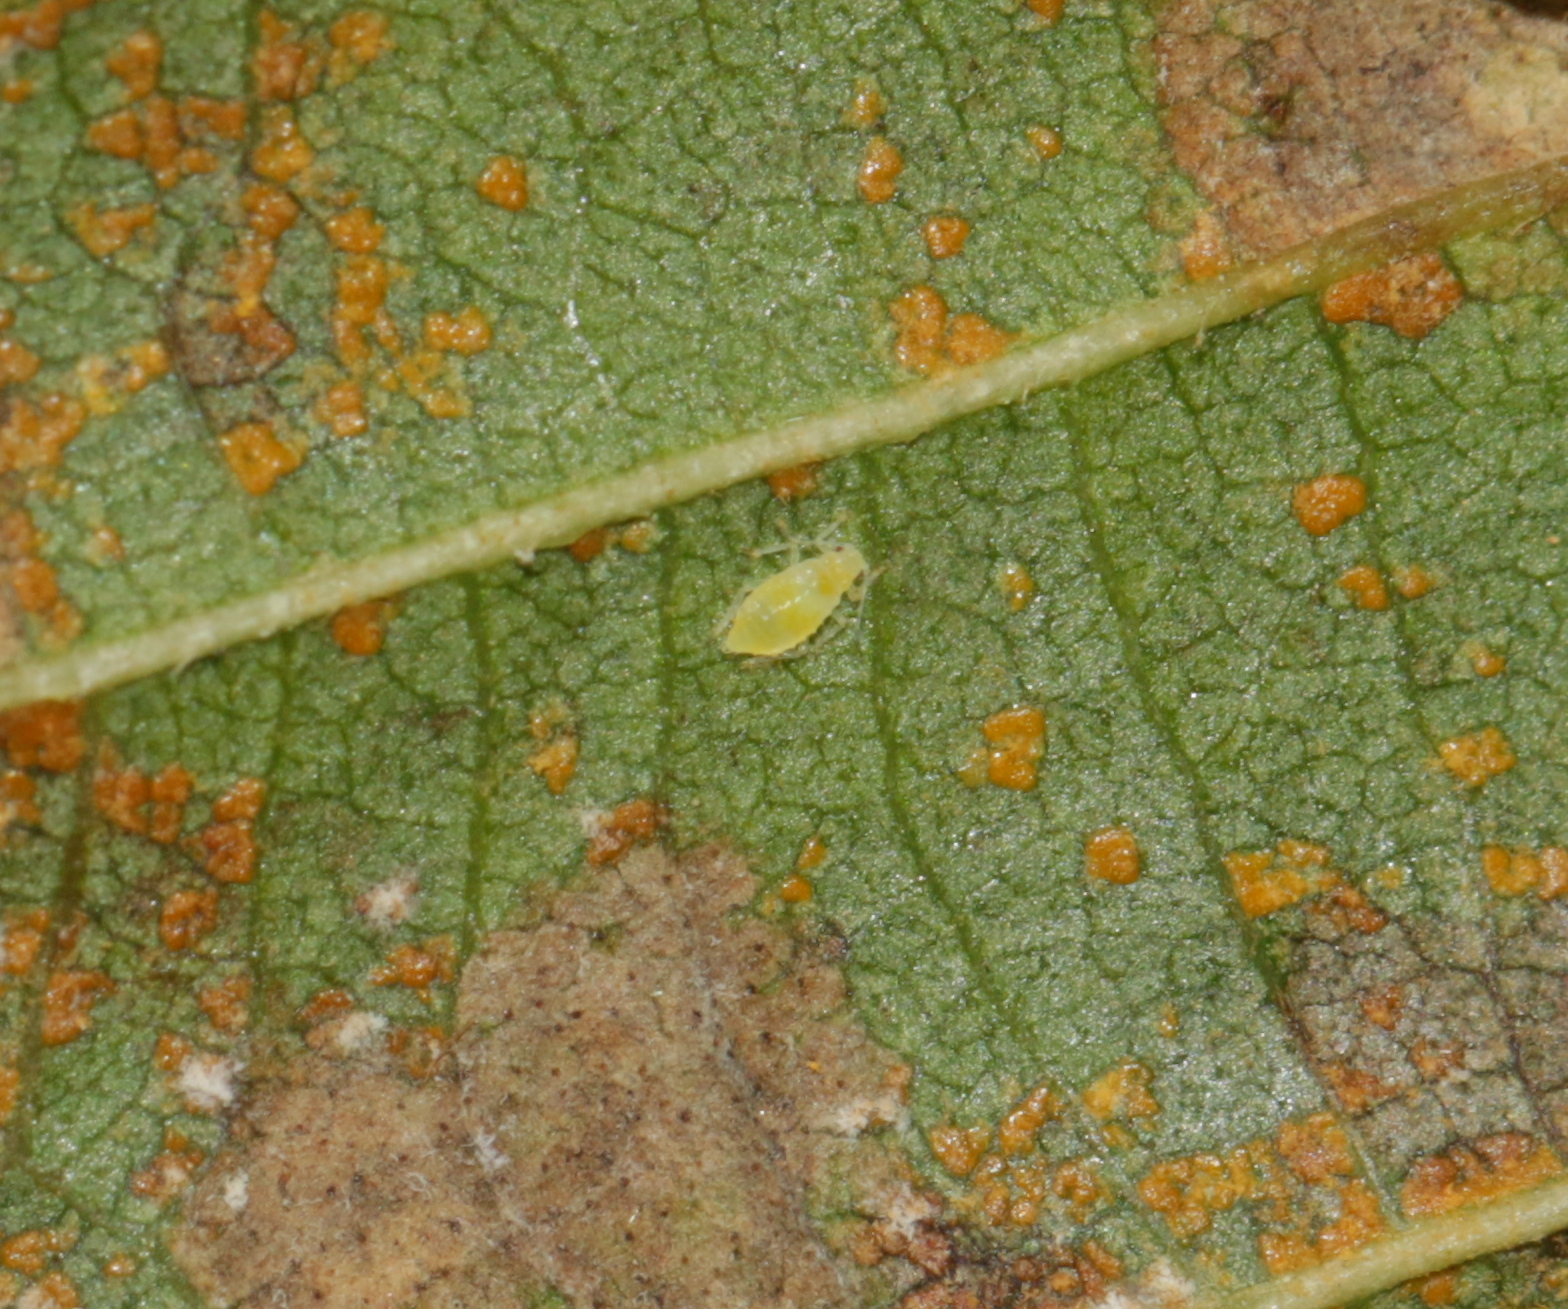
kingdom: Animalia
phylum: Arthropoda
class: Insecta
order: Hemiptera
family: Aphididae
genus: Pterocallis
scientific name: Pterocallis alni
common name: Aphid
